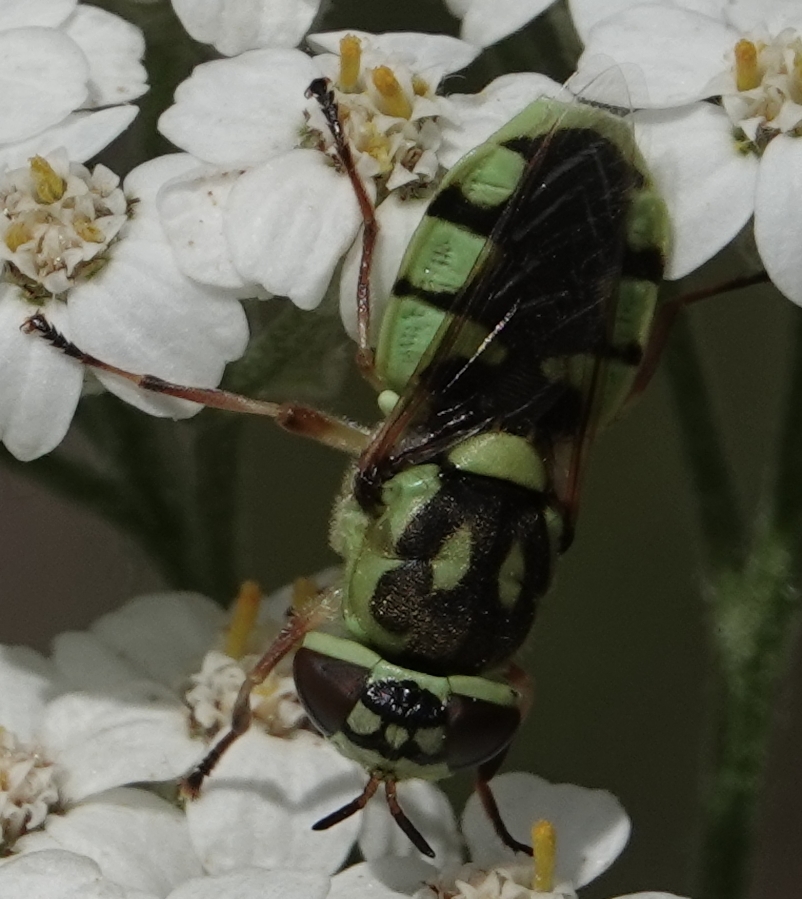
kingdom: Animalia
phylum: Arthropoda
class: Insecta
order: Diptera
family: Stratiomyidae
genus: Hedriodiscus
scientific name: Hedriodiscus binotatus
